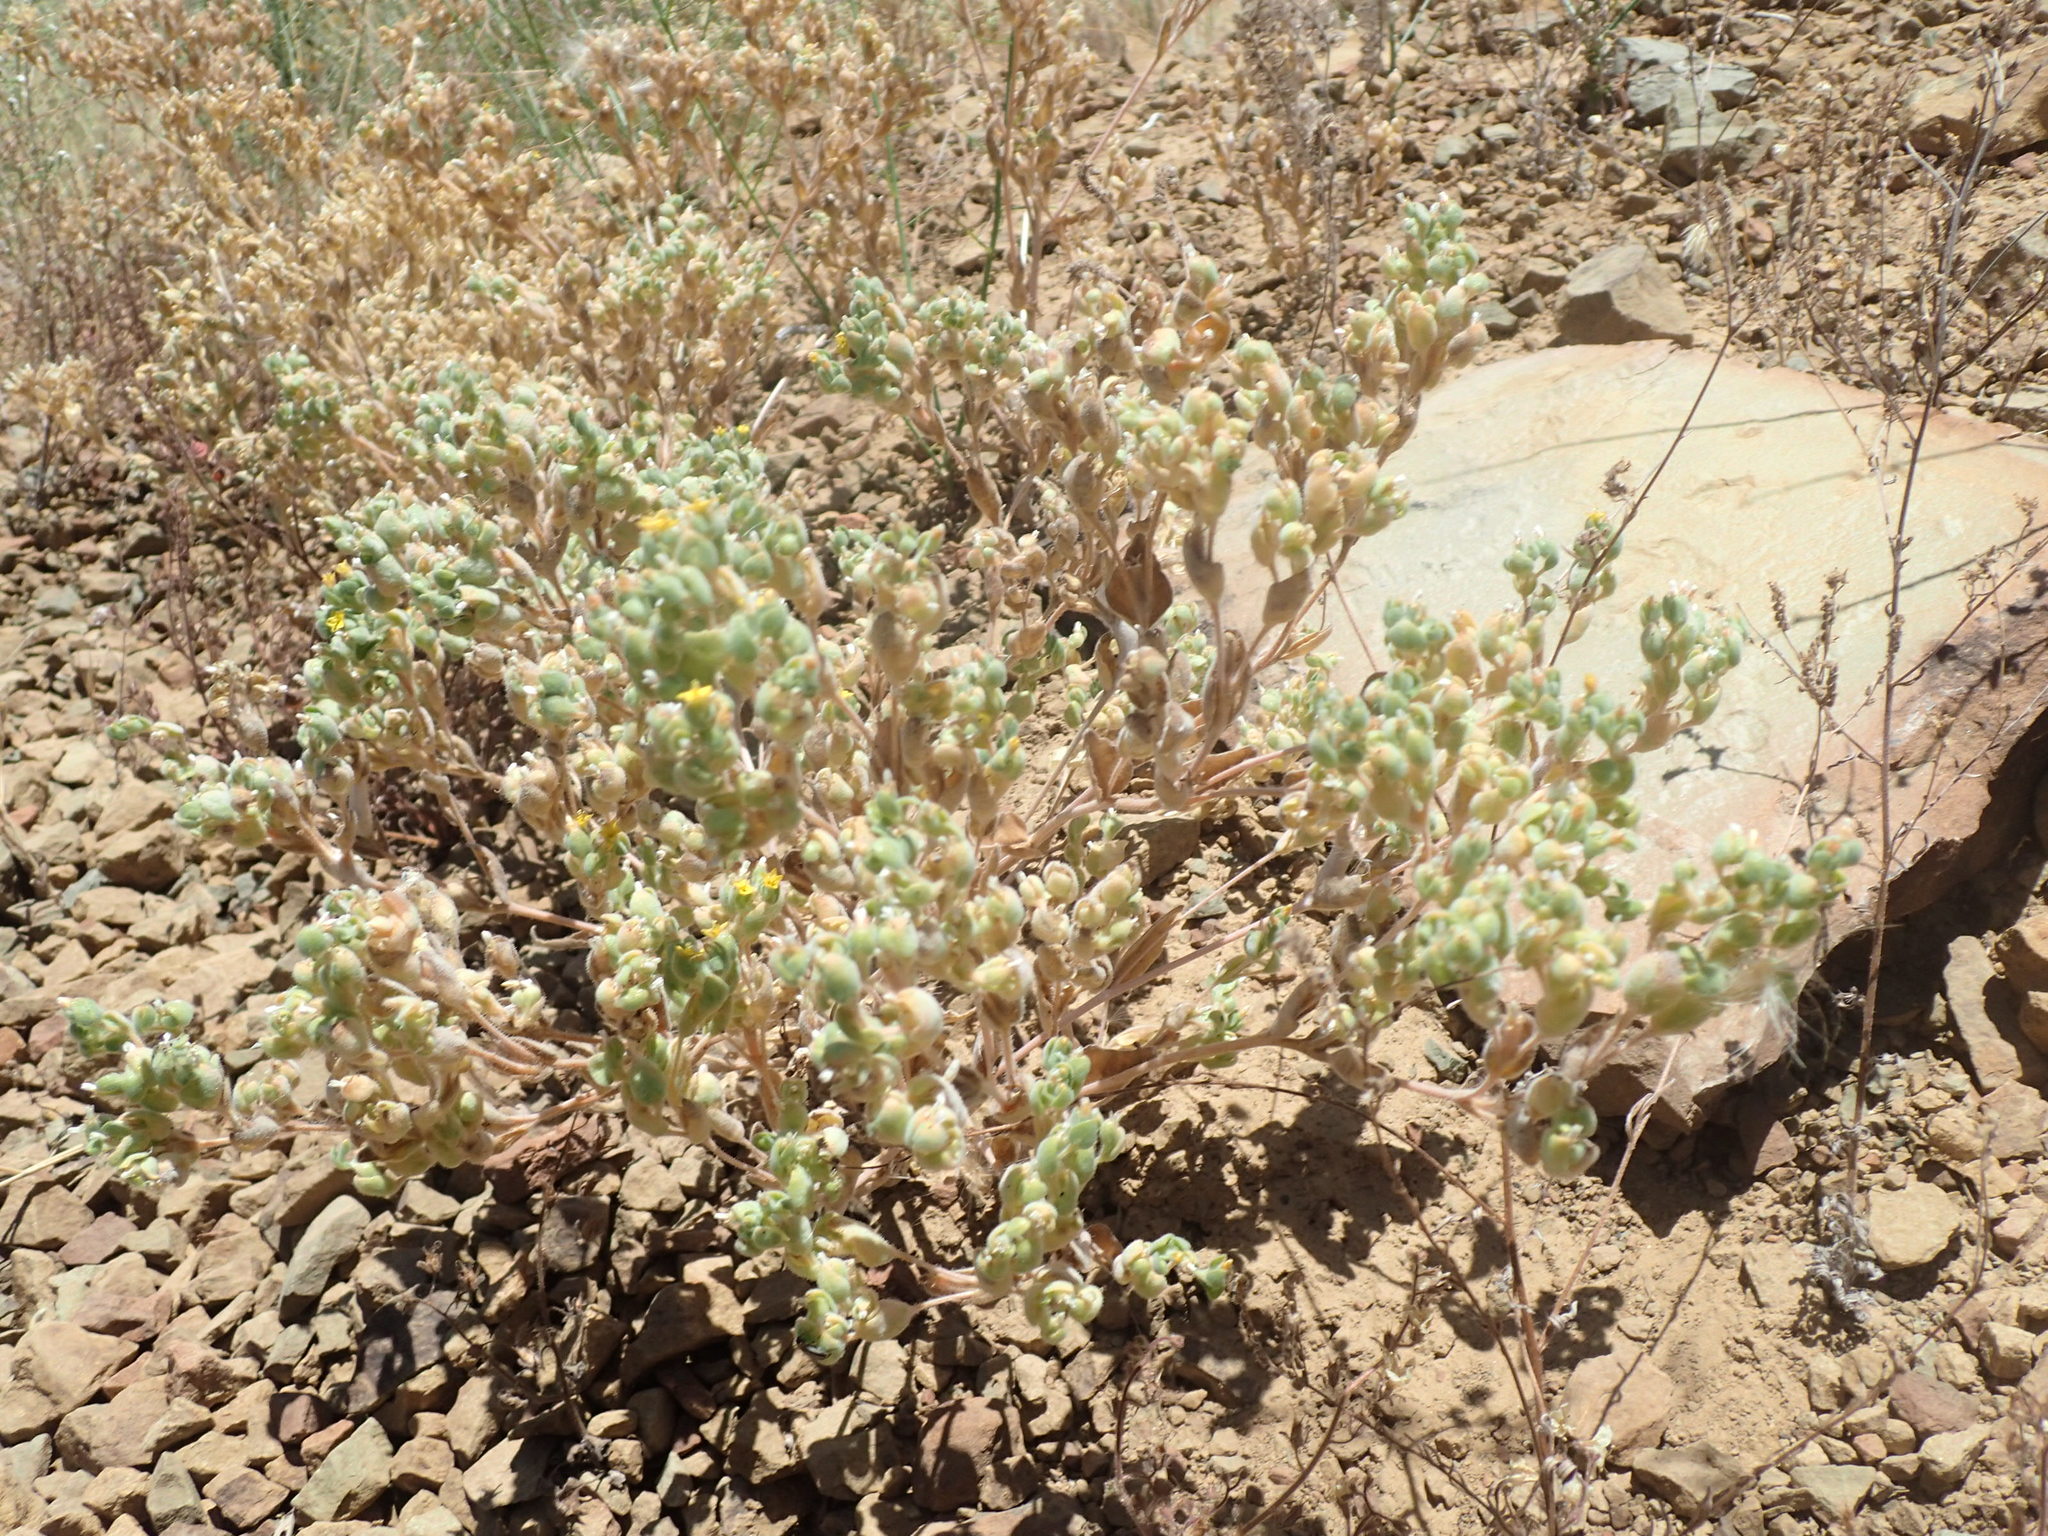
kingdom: Plantae
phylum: Tracheophyta
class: Magnoliopsida
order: Cornales
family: Loasaceae
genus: Mentzelia
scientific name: Mentzelia micrantha
